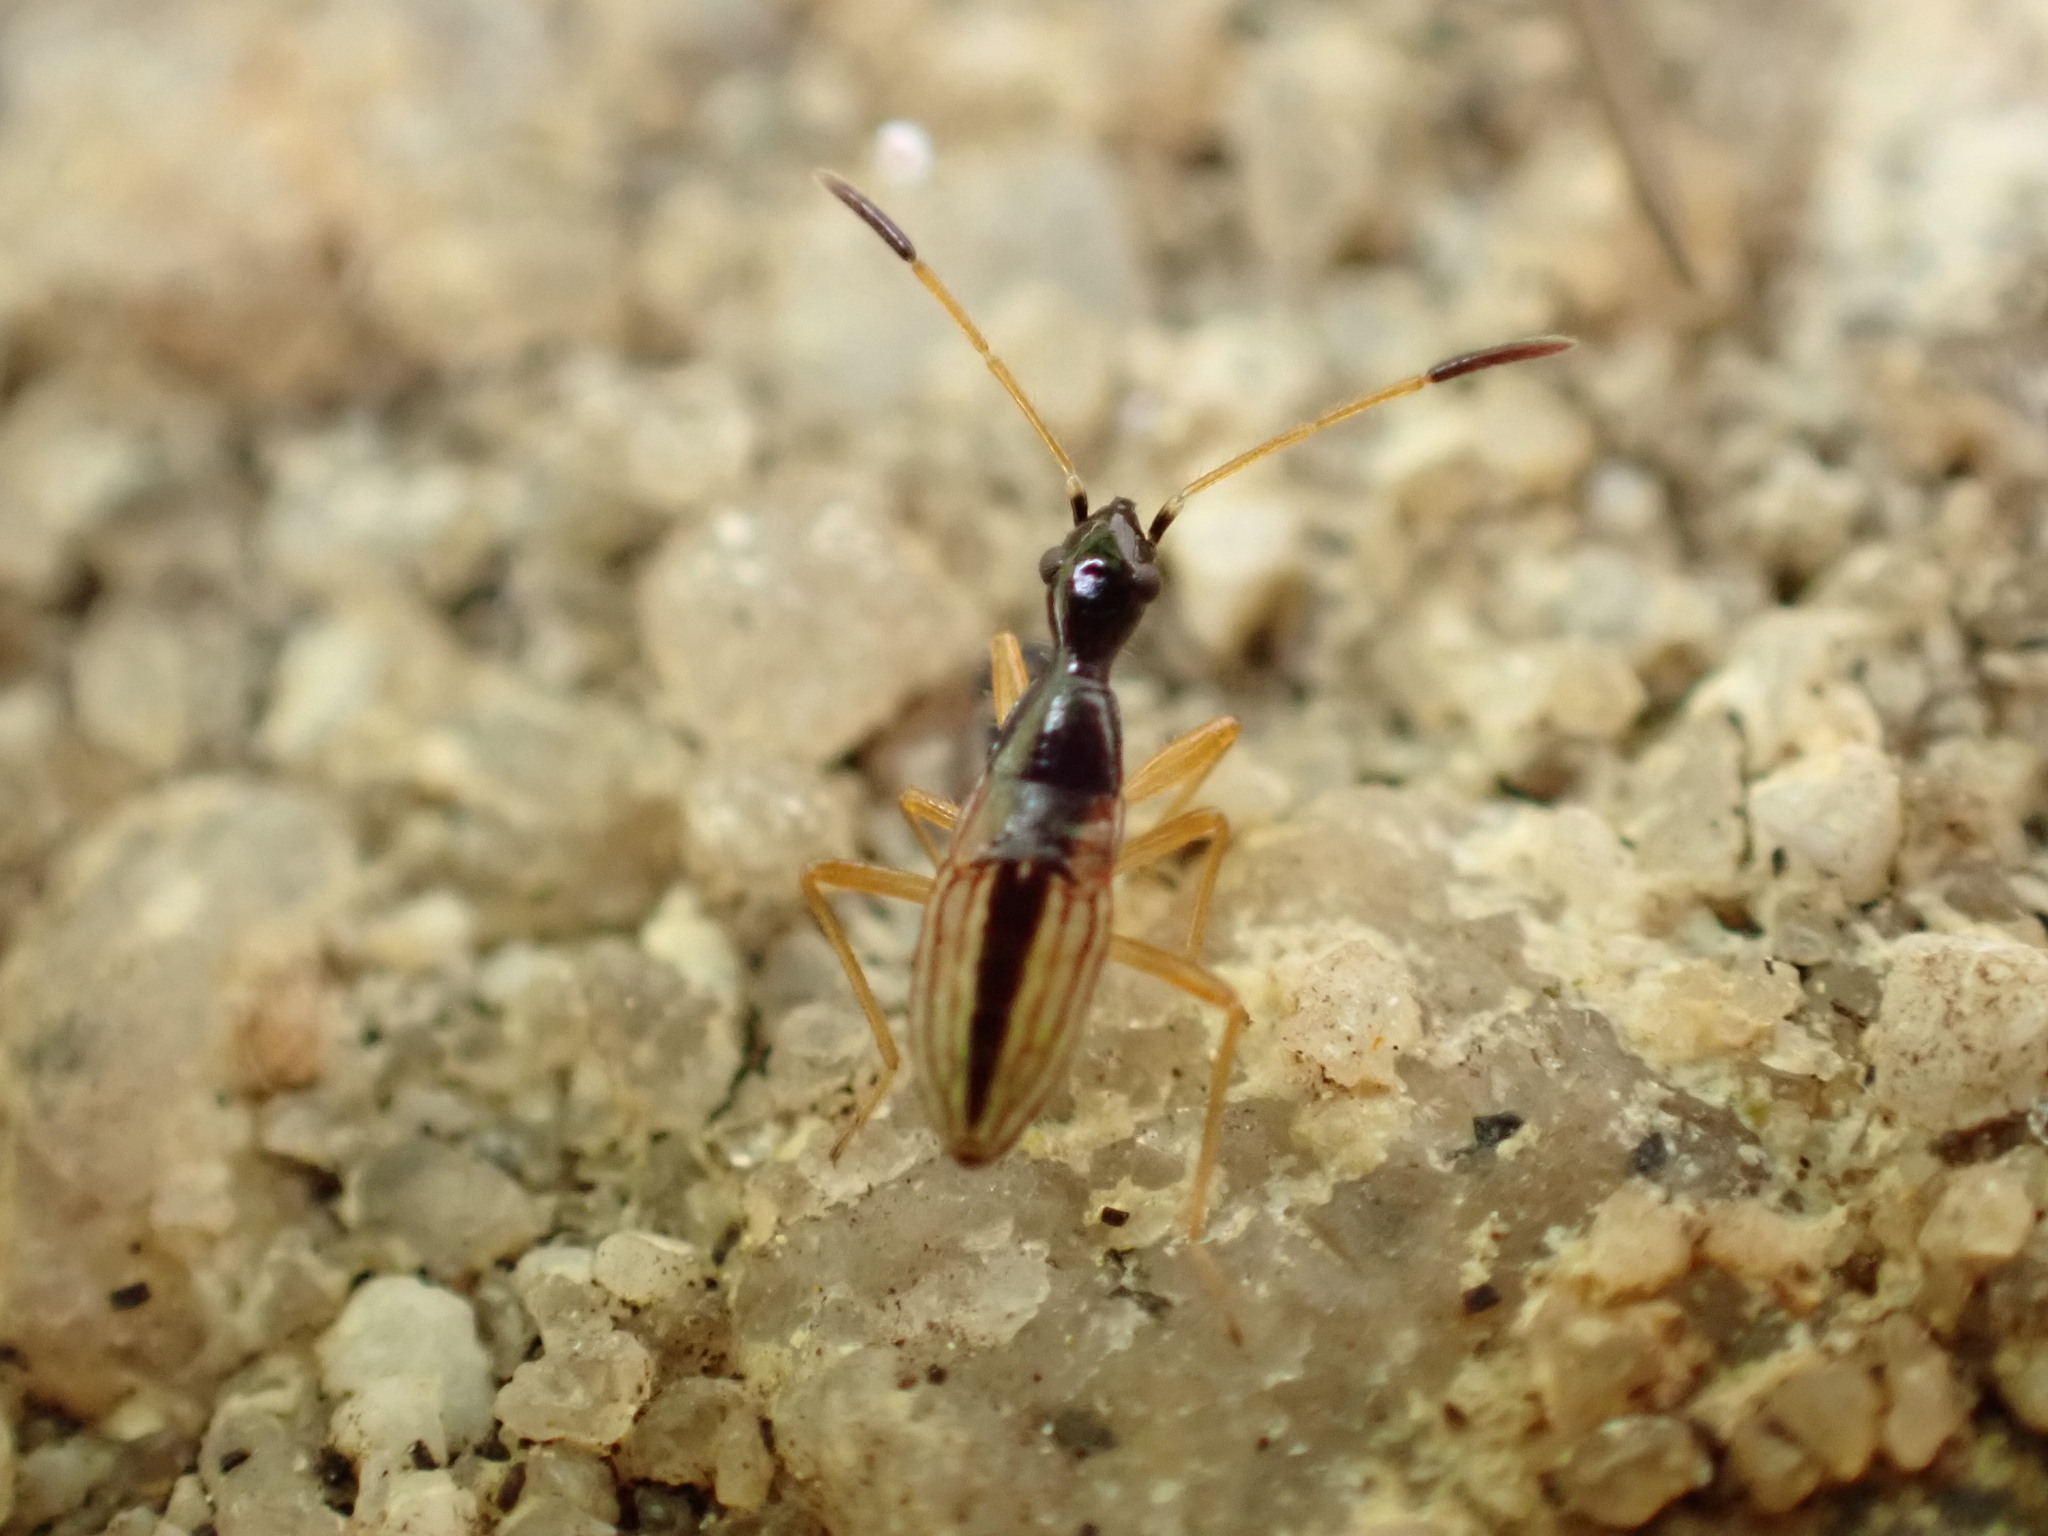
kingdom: Animalia
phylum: Arthropoda
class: Insecta
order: Hemiptera
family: Rhyparochromidae
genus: Myodocha
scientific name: Myodocha serripes
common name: Long-necked seed bug
